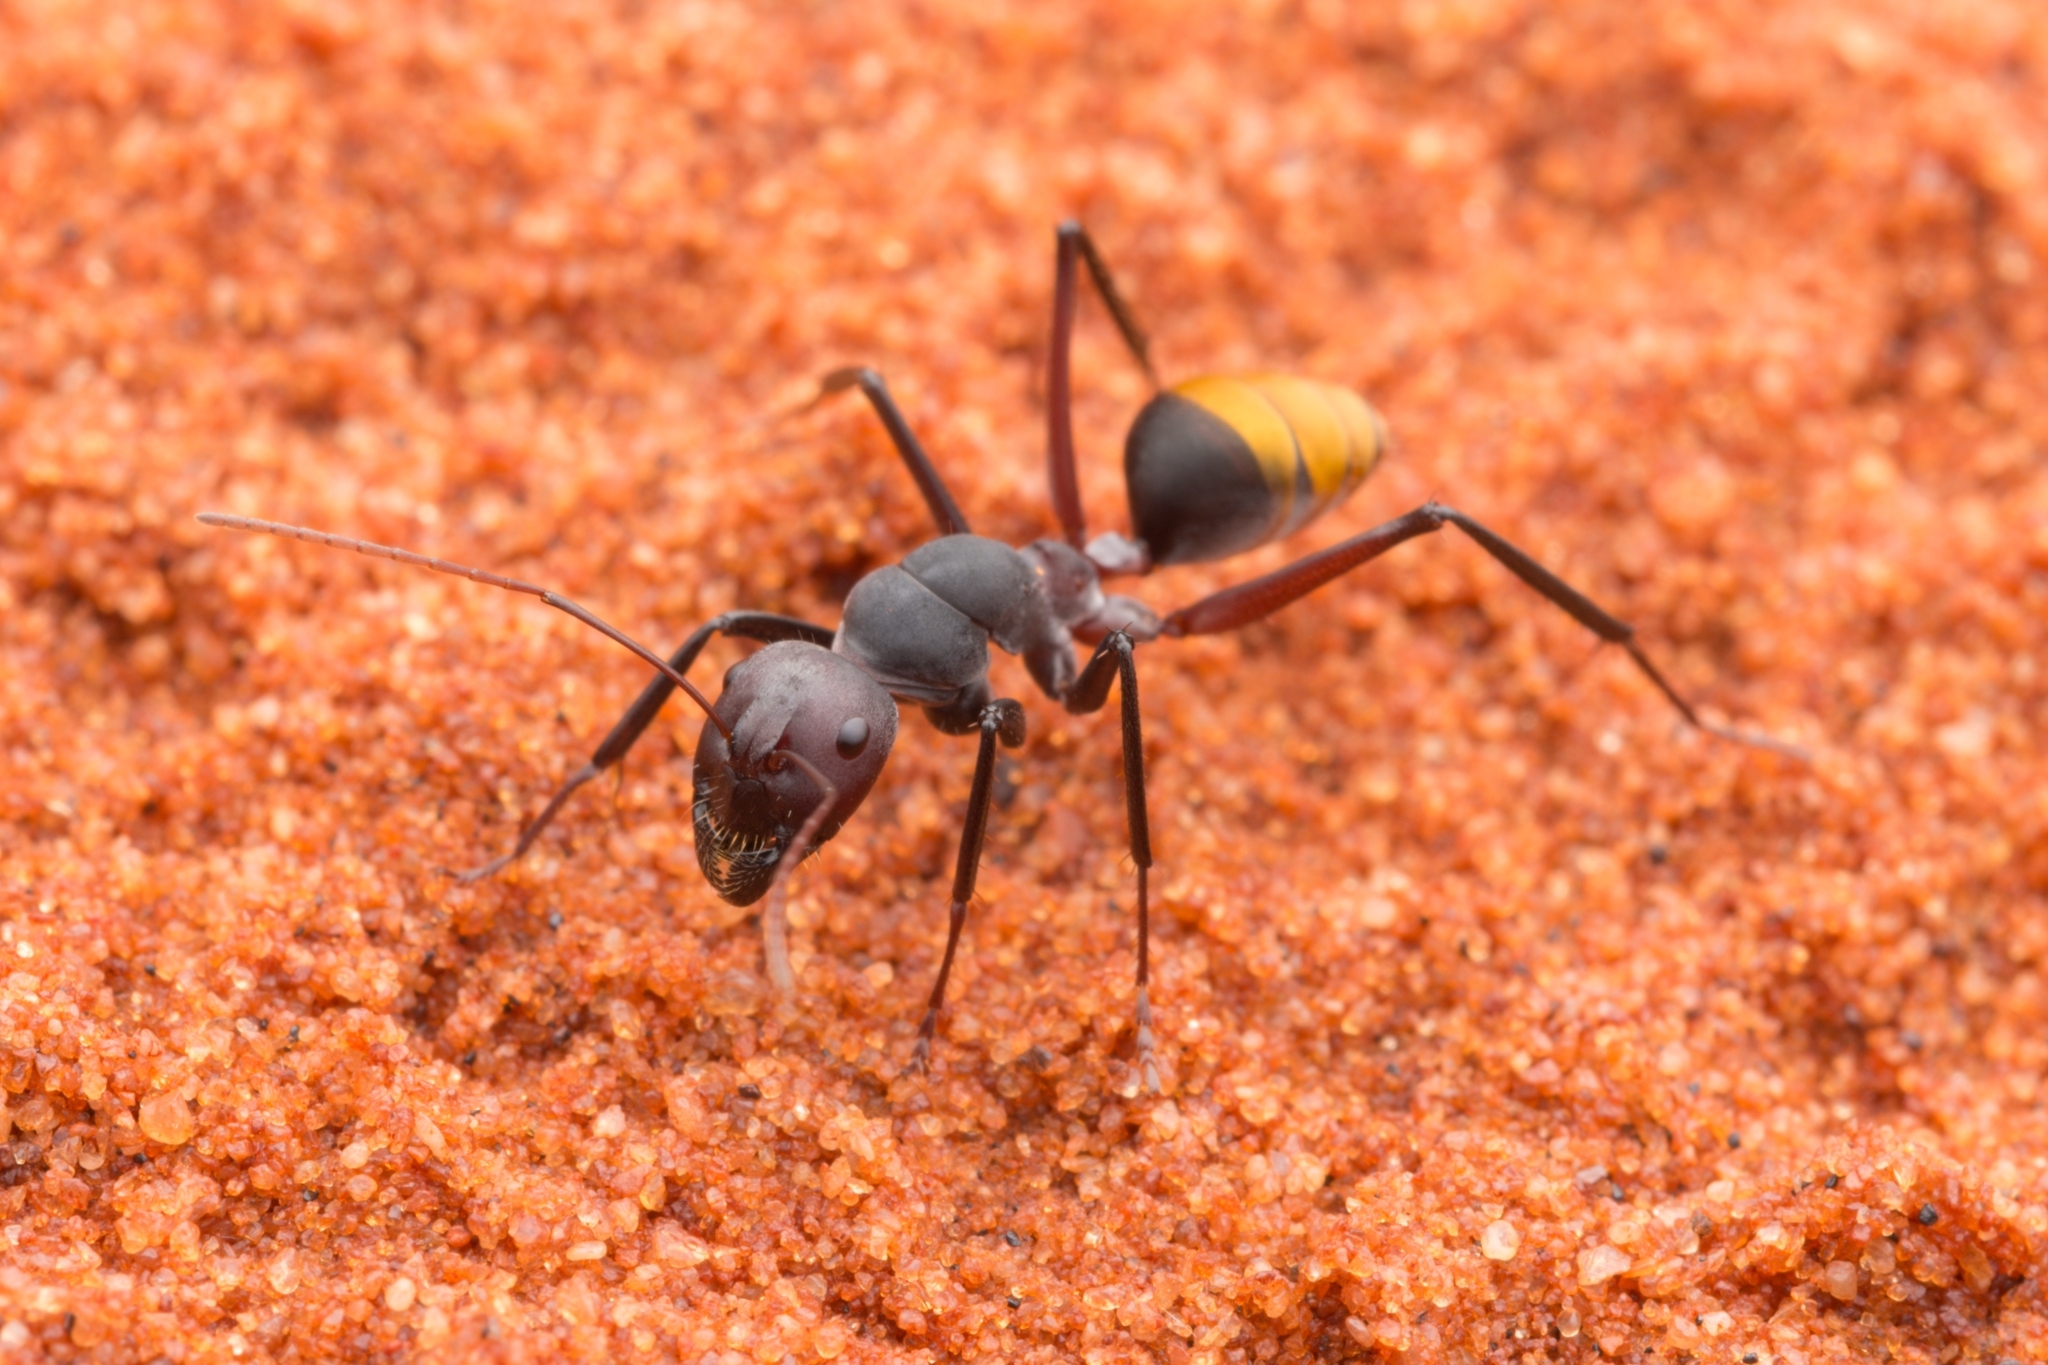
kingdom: Animalia
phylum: Arthropoda
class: Insecta
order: Hymenoptera
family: Formicidae
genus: Camponotus
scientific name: Camponotus aurocinctus
